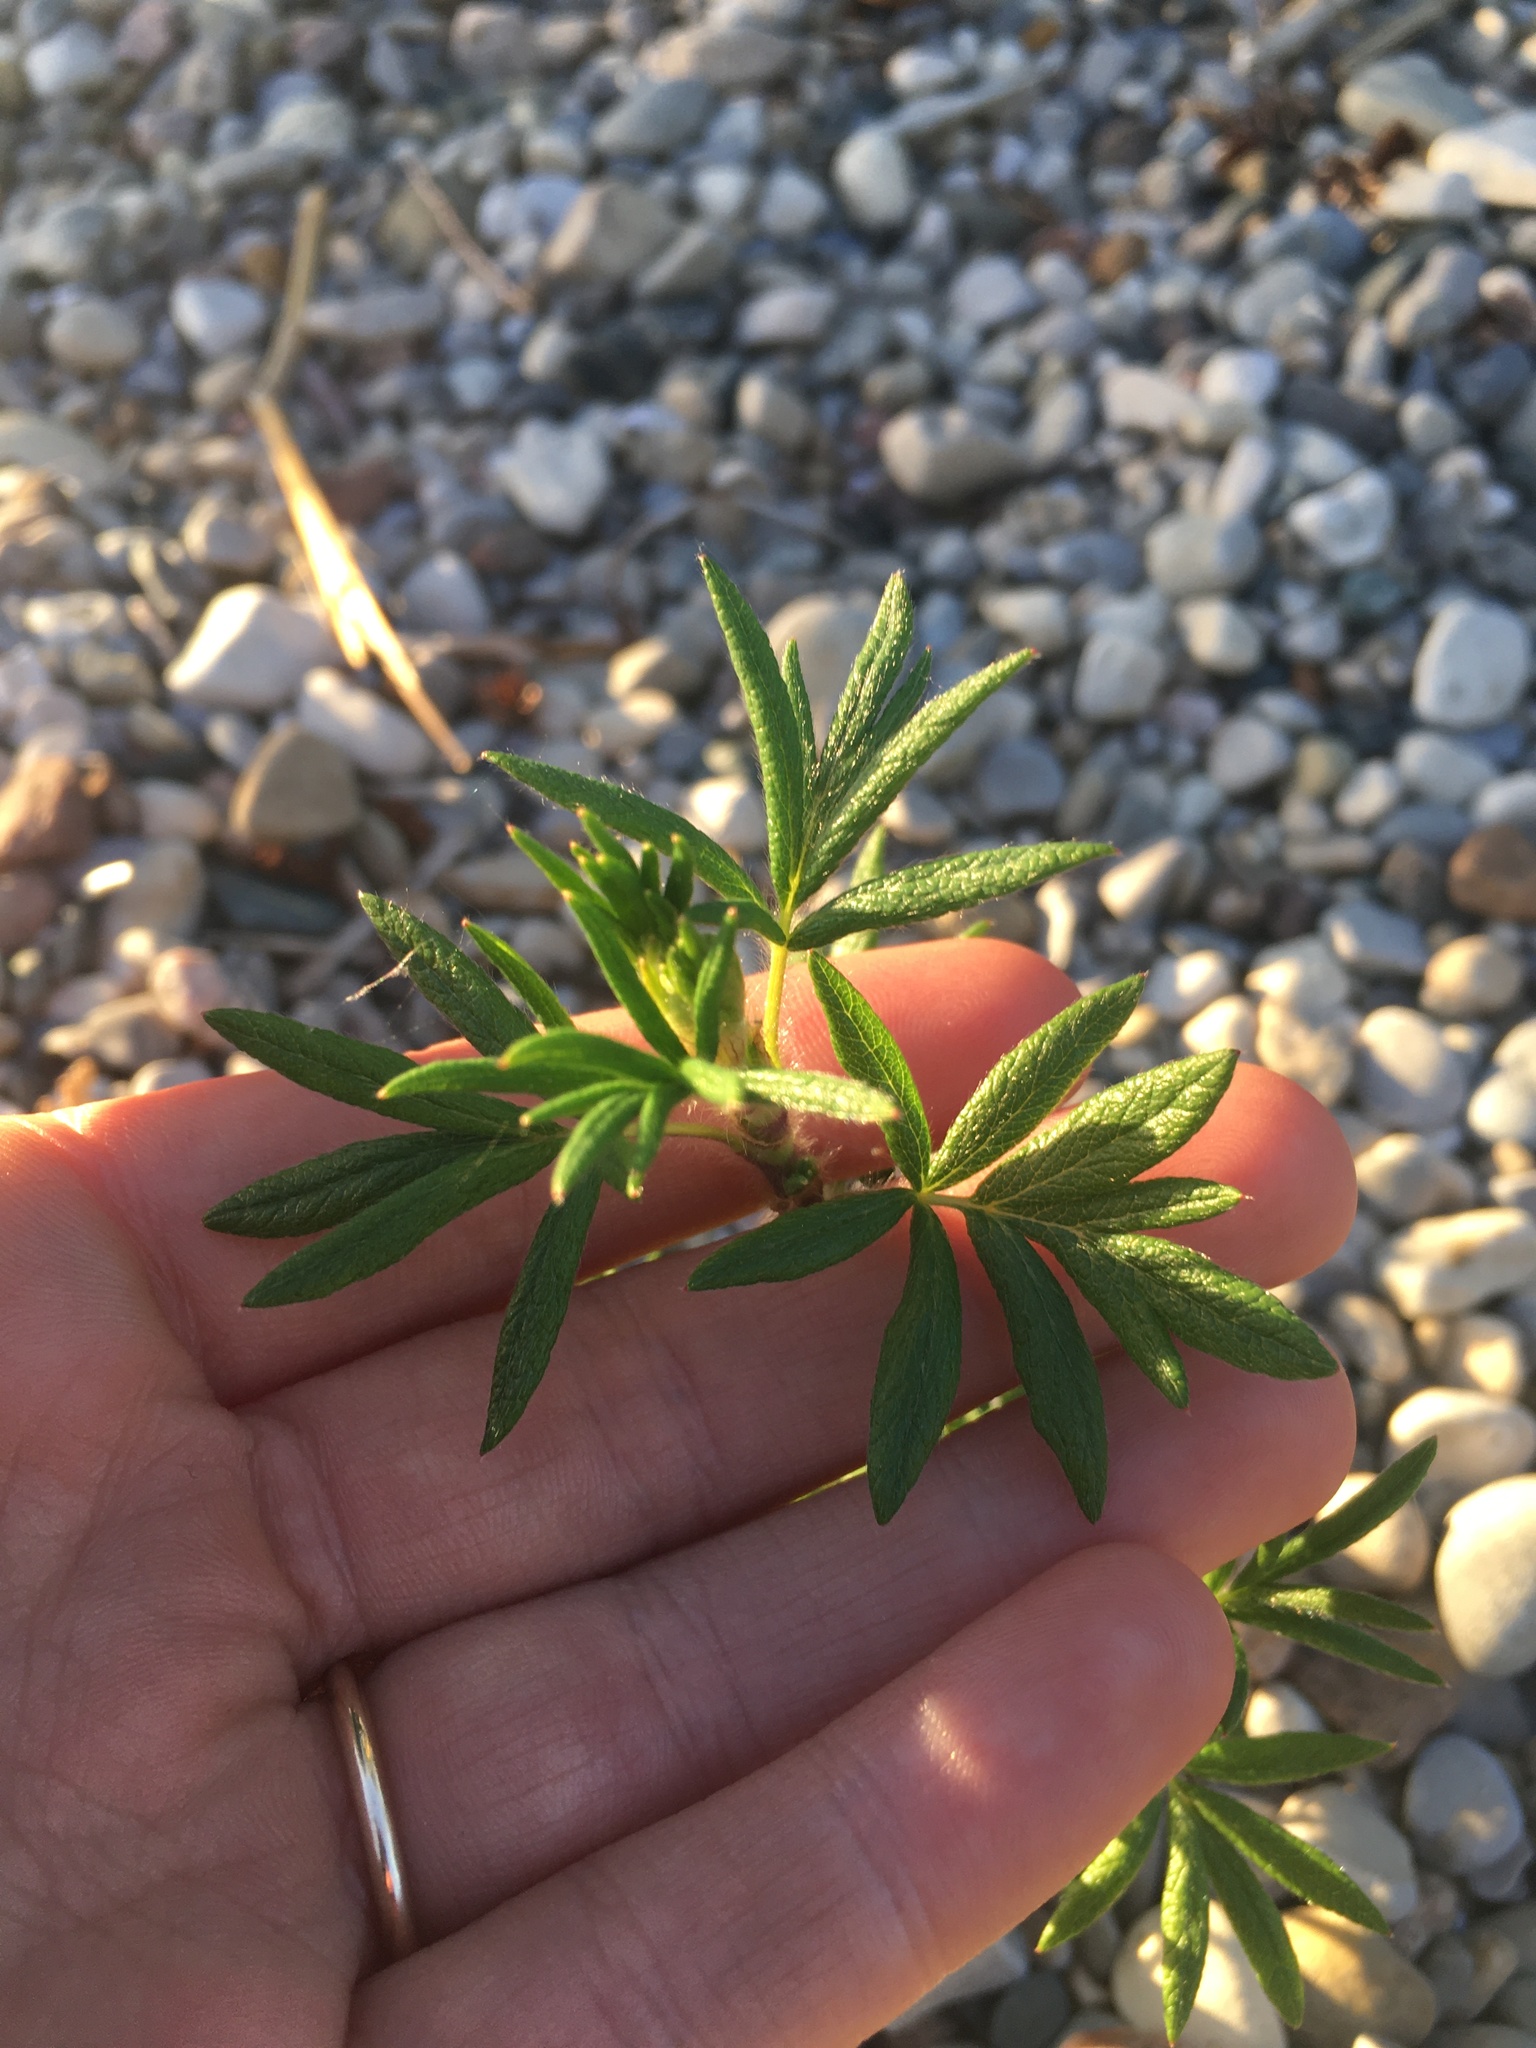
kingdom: Plantae
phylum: Tracheophyta
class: Magnoliopsida
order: Rosales
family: Rosaceae
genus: Dasiphora
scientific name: Dasiphora fruticosa
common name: Shrubby cinquefoil
